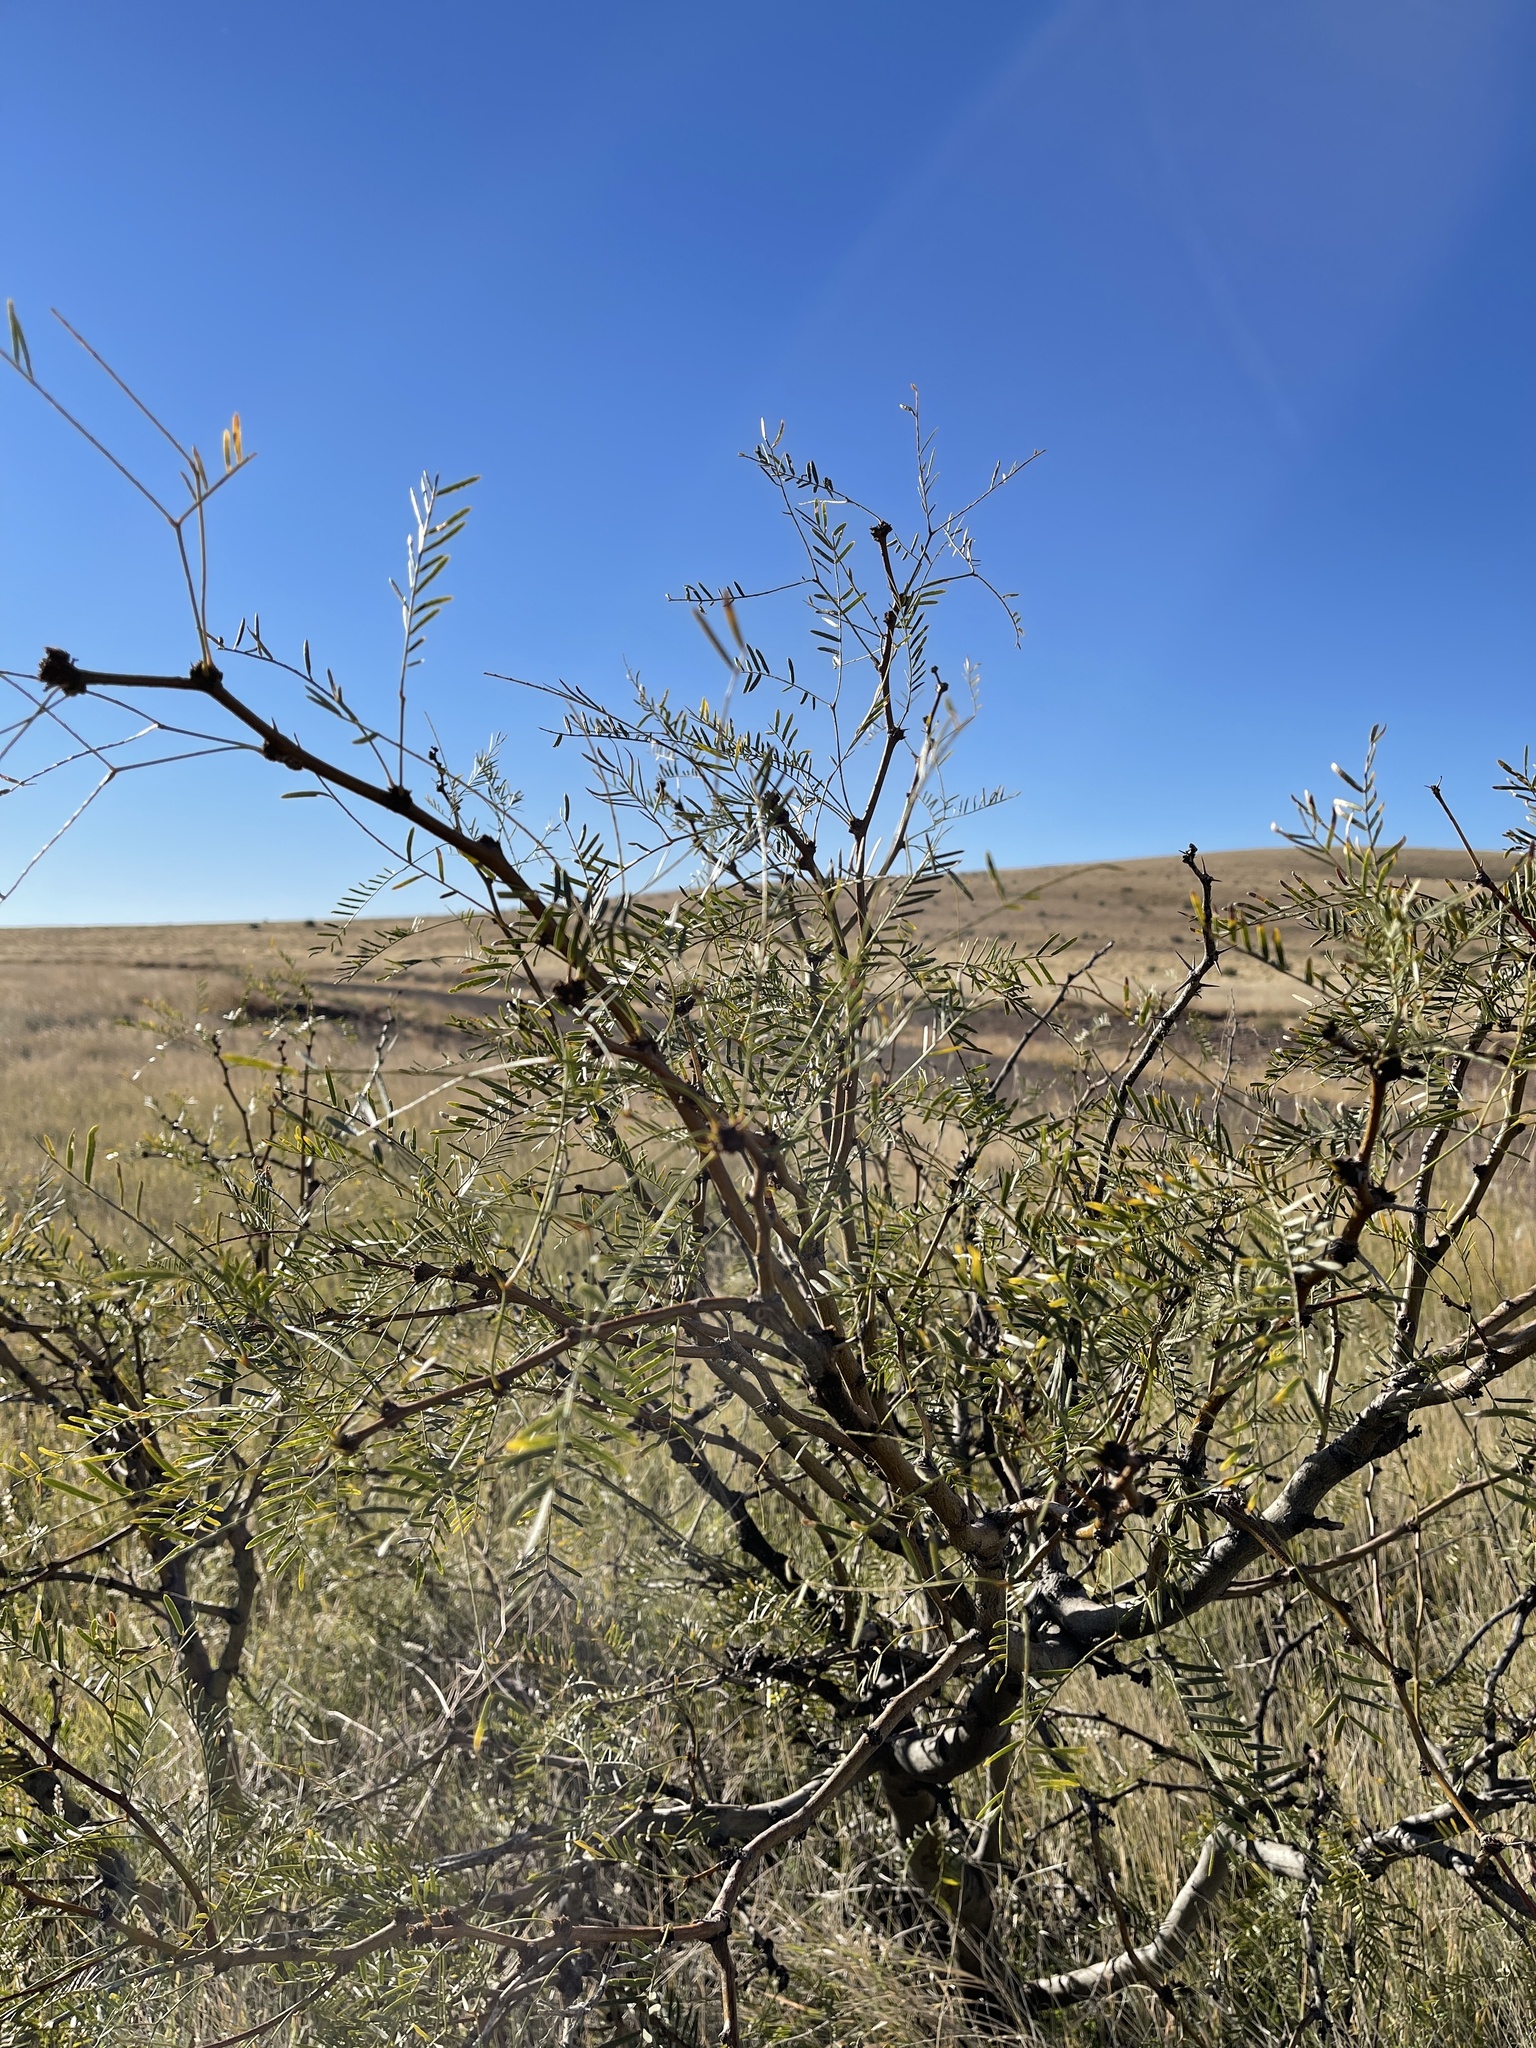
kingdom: Plantae
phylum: Tracheophyta
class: Magnoliopsida
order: Fabales
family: Fabaceae
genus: Prosopis
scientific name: Prosopis glandulosa
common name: Honey mesquite
